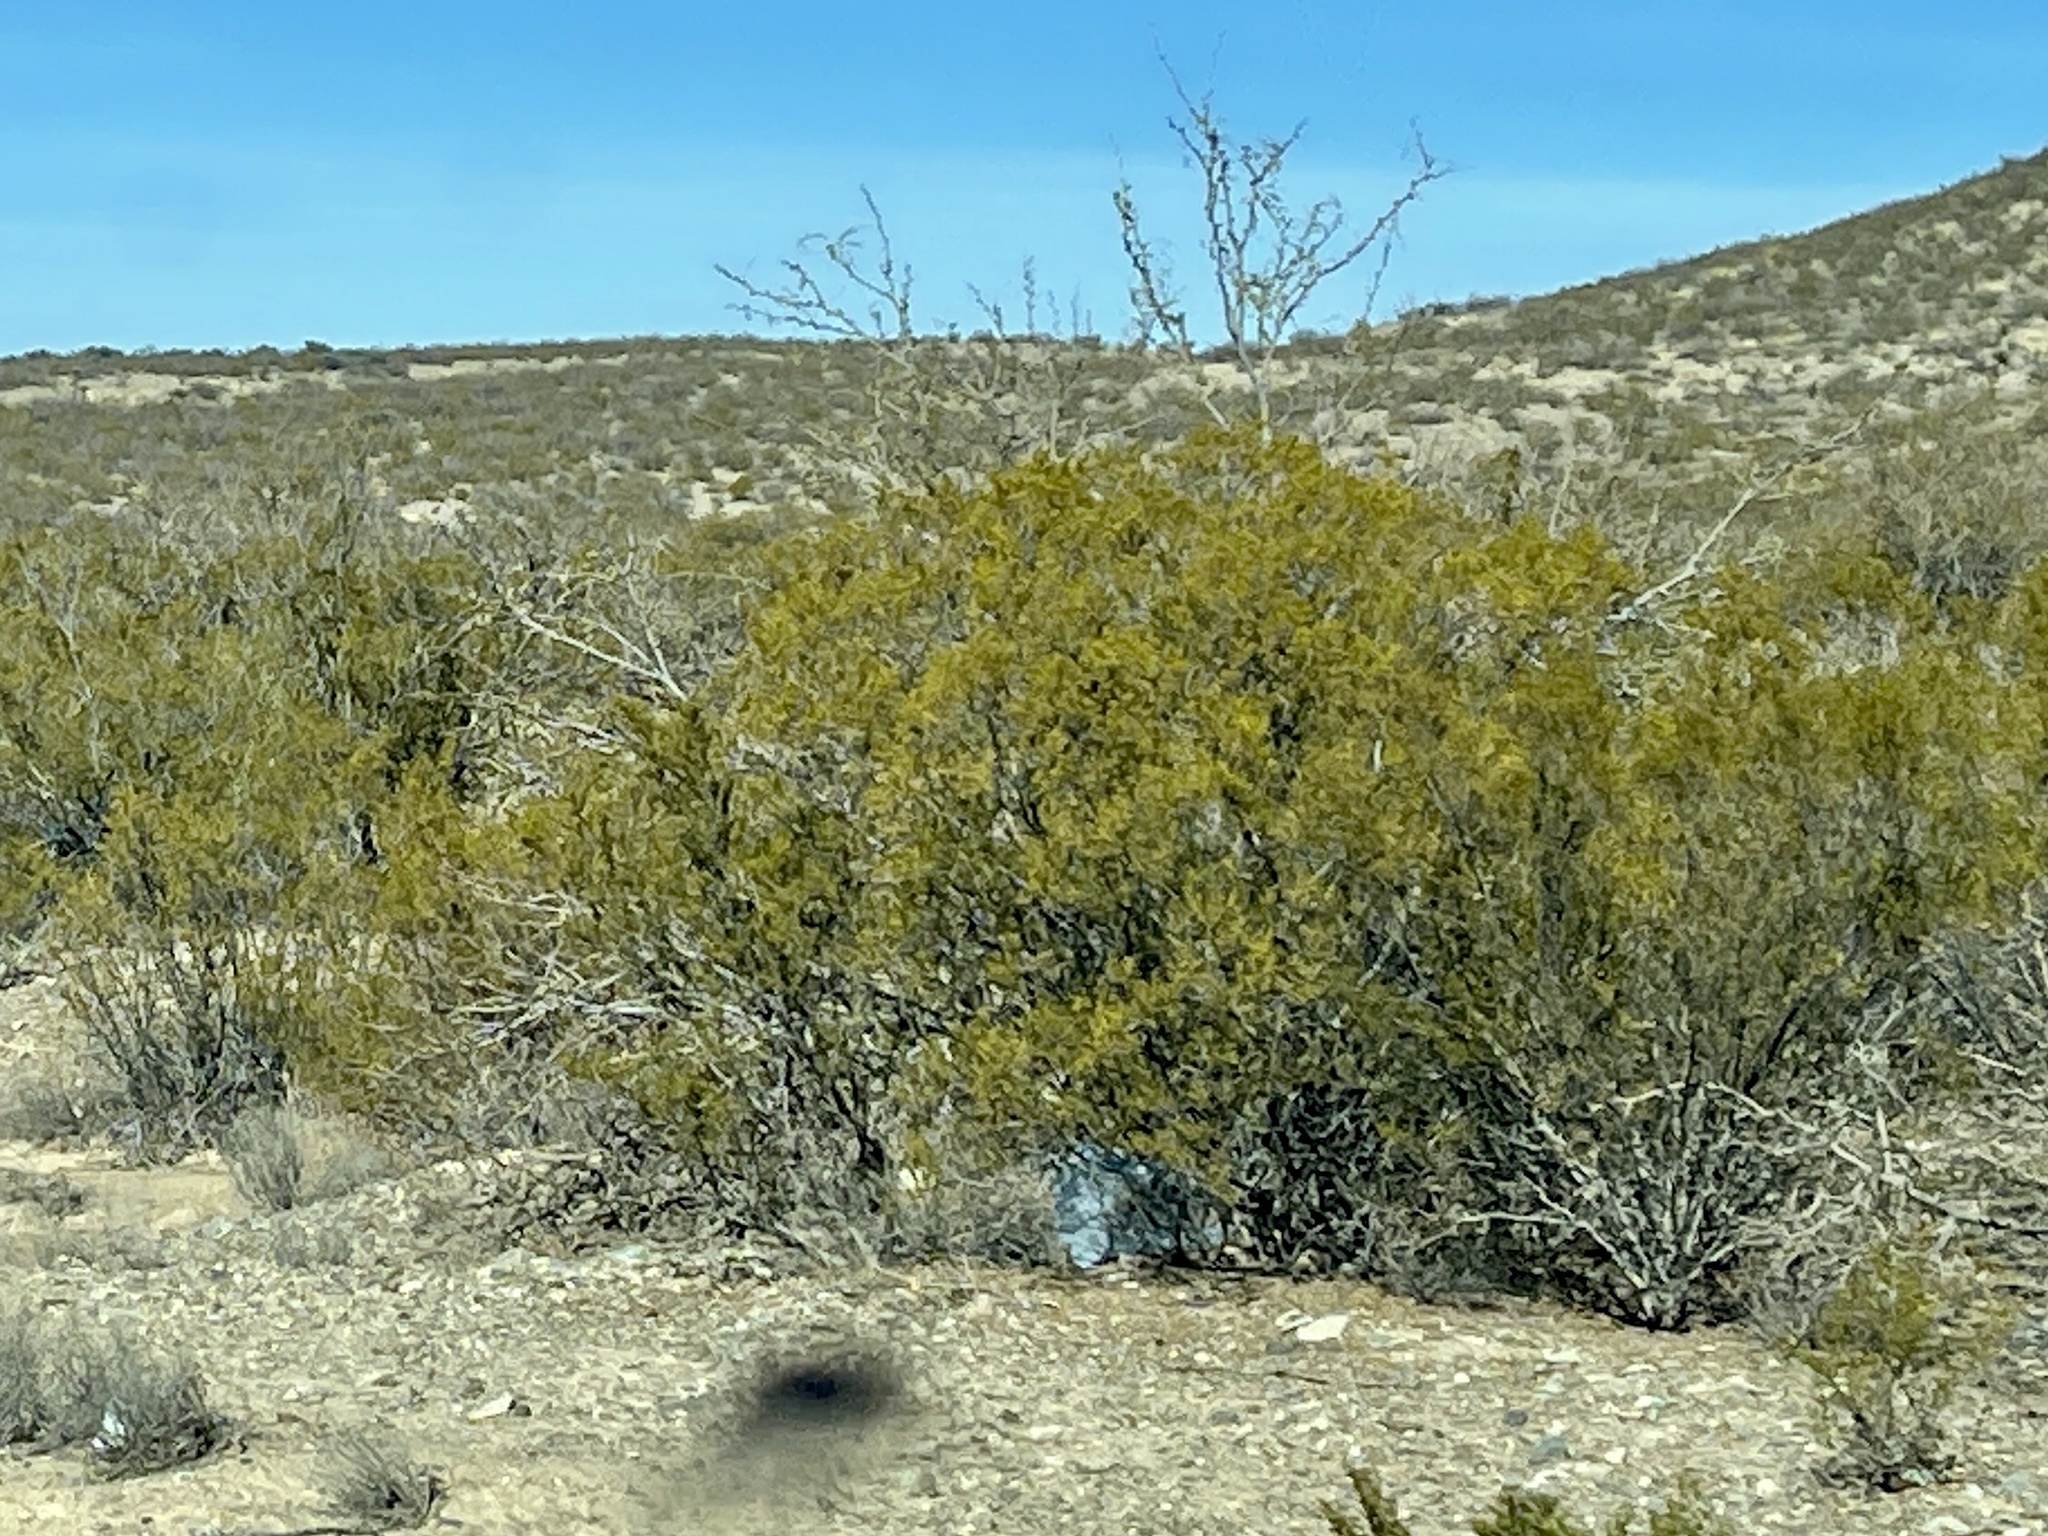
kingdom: Plantae
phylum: Tracheophyta
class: Magnoliopsida
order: Zygophyllales
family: Zygophyllaceae
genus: Larrea
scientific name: Larrea tridentata
